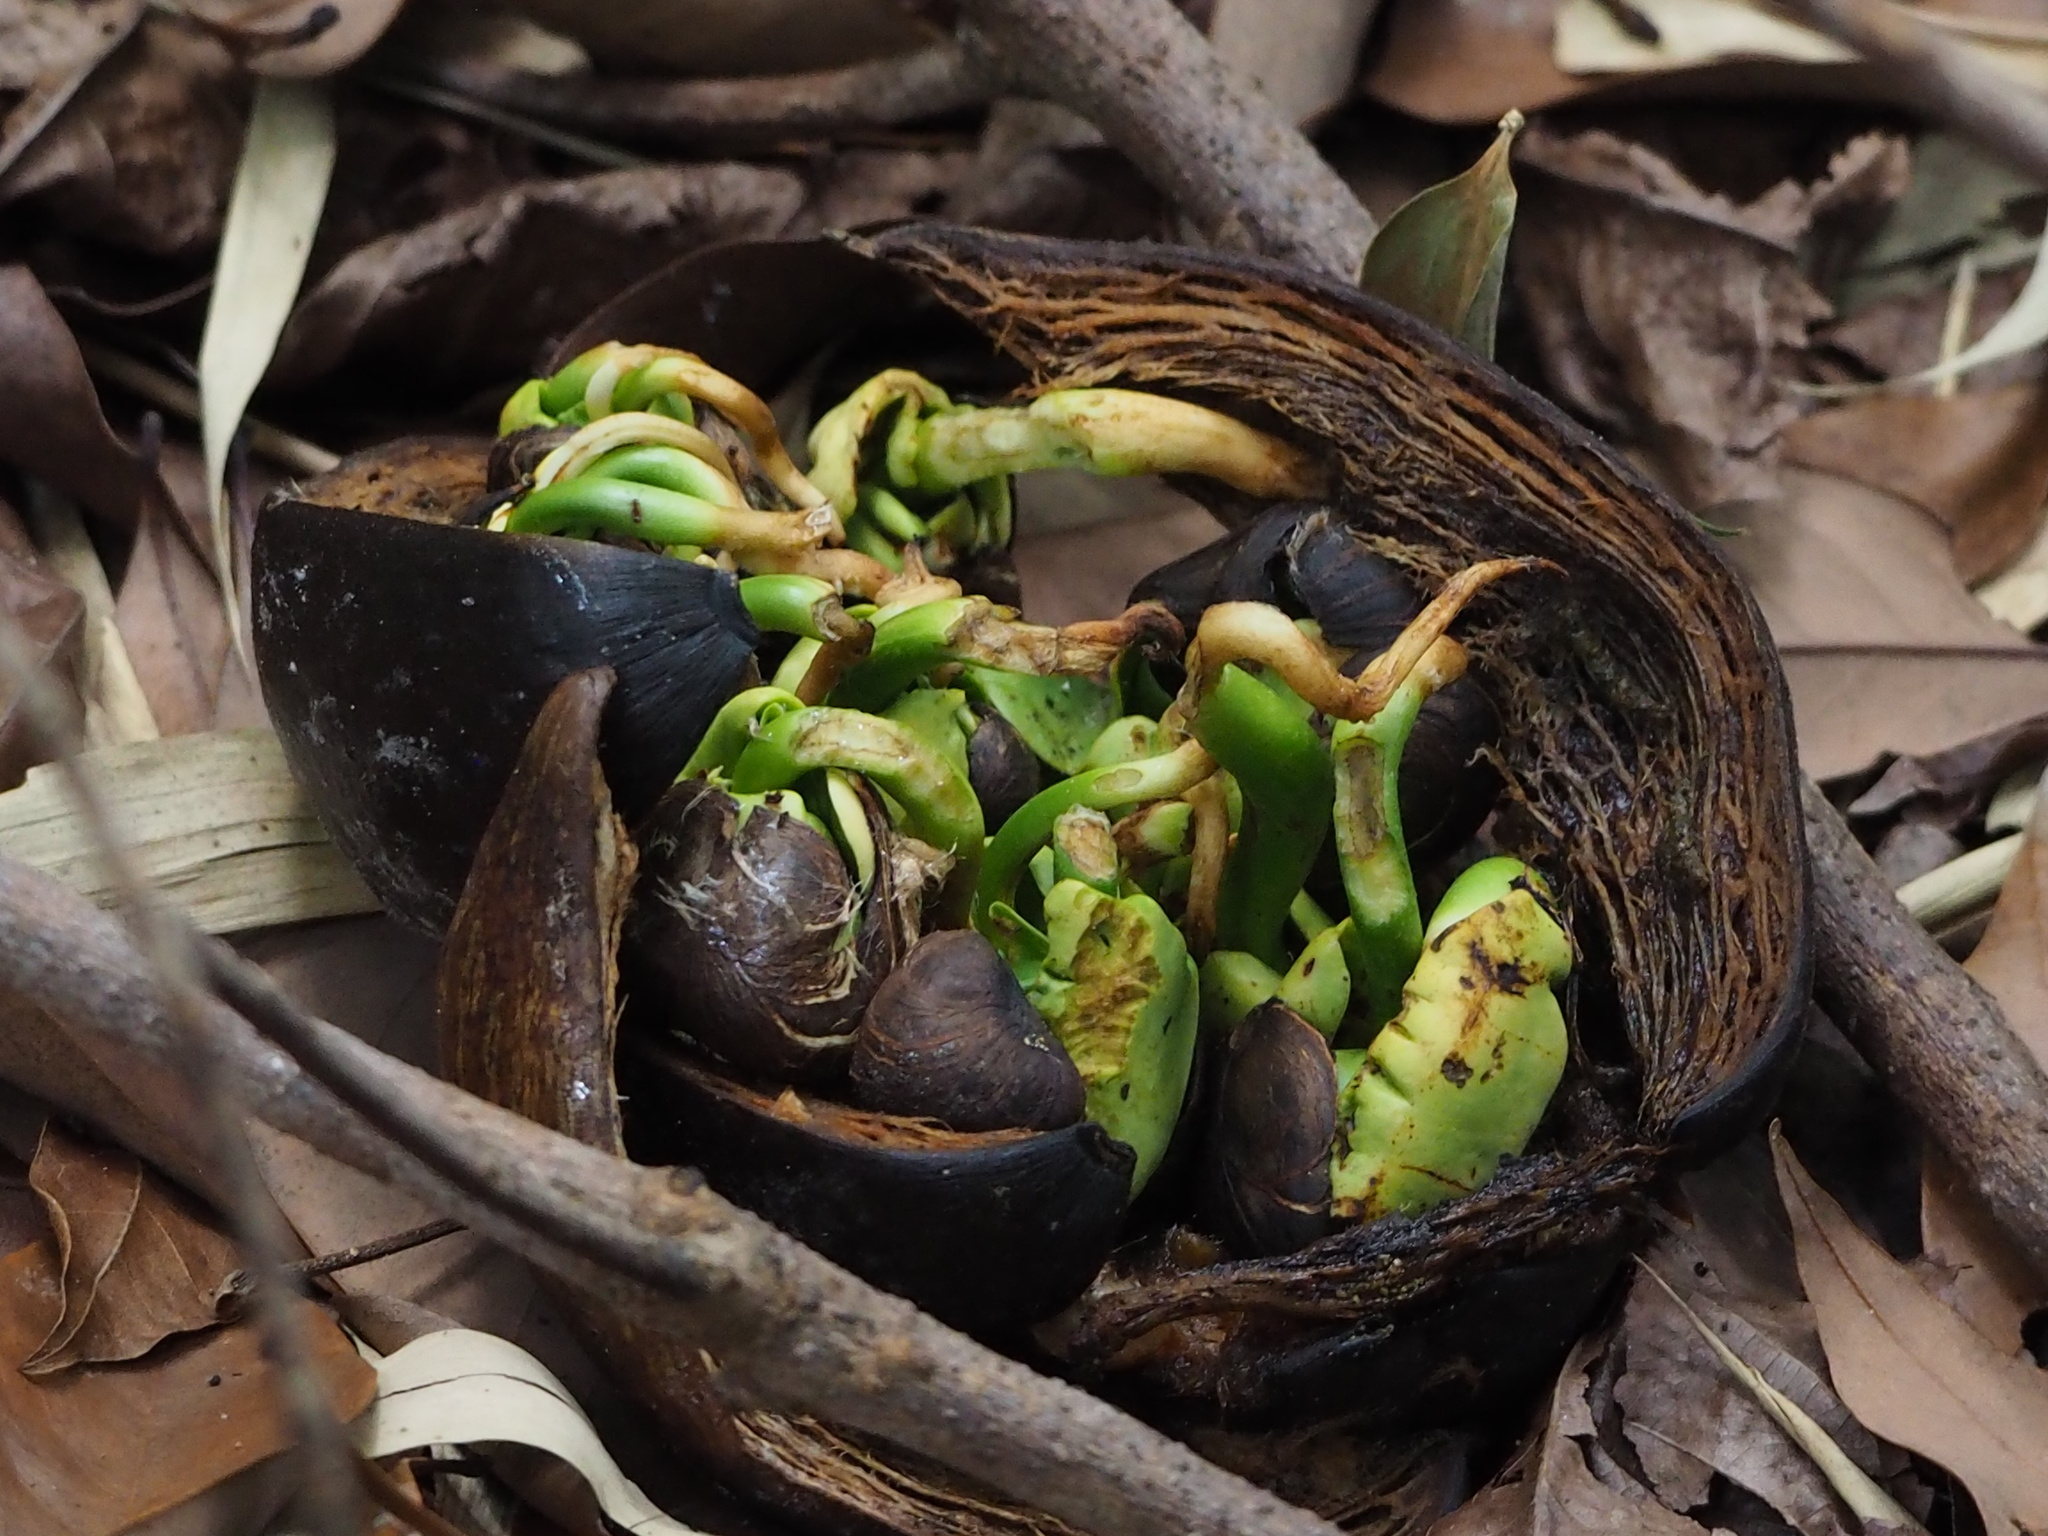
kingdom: Plantae
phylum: Tracheophyta
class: Magnoliopsida
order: Malvales
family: Malvaceae
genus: Pachira
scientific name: Pachira glabra
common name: Moneytree
